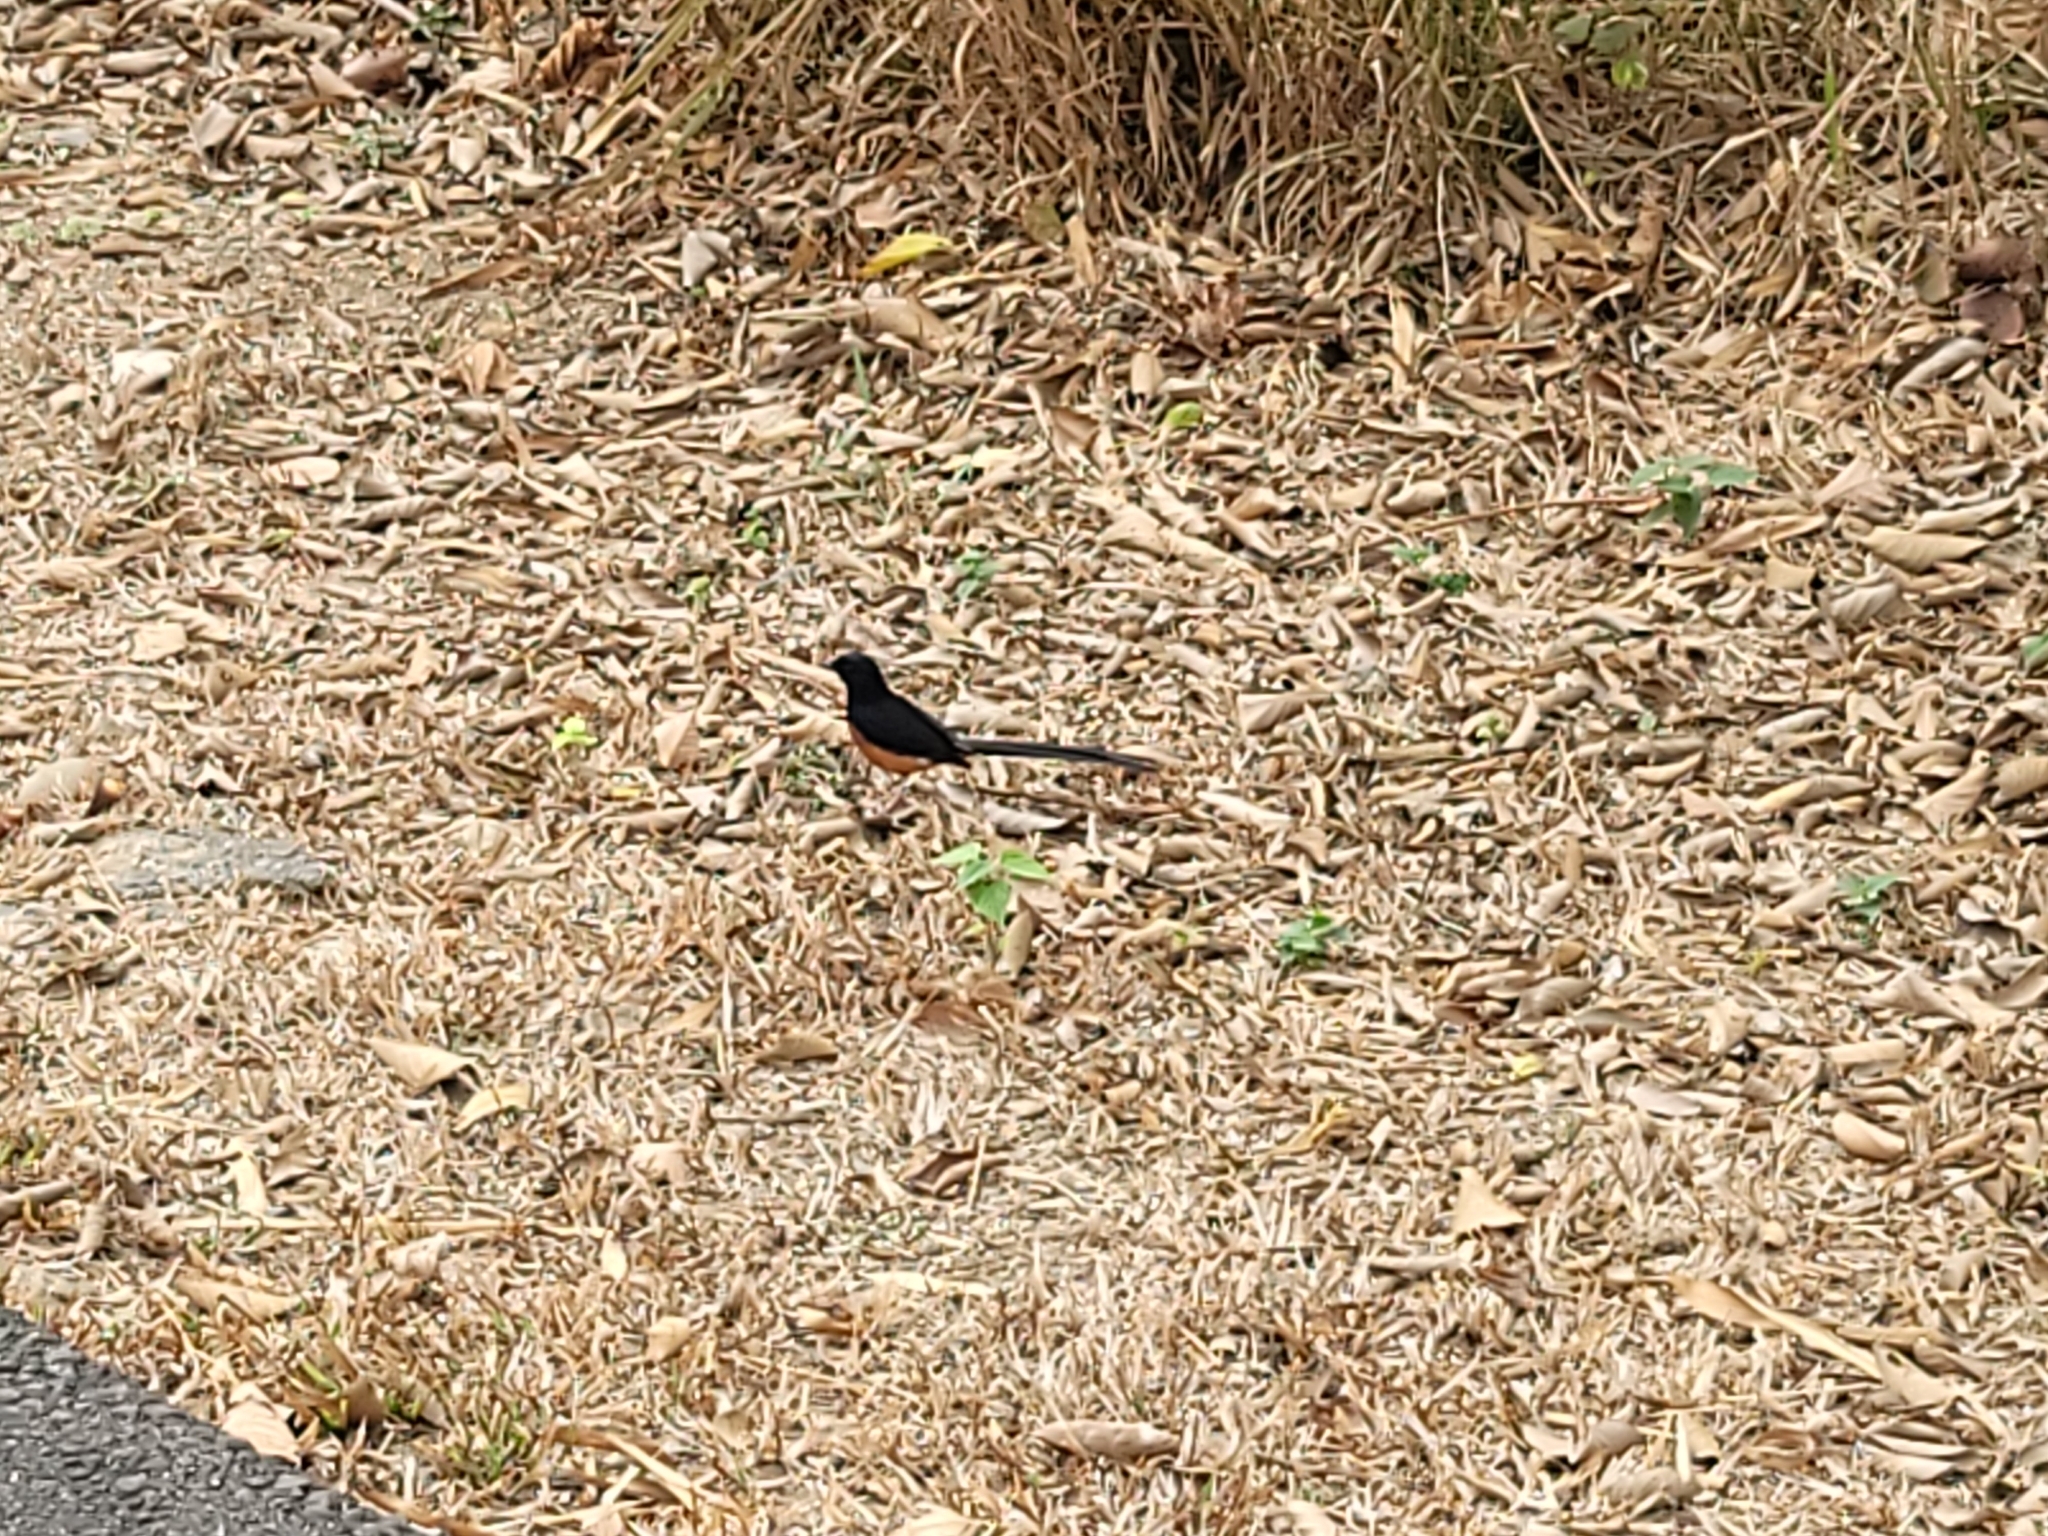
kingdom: Animalia
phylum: Chordata
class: Aves
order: Passeriformes
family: Muscicapidae
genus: Copsychus
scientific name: Copsychus malabaricus
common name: White-rumped shama
